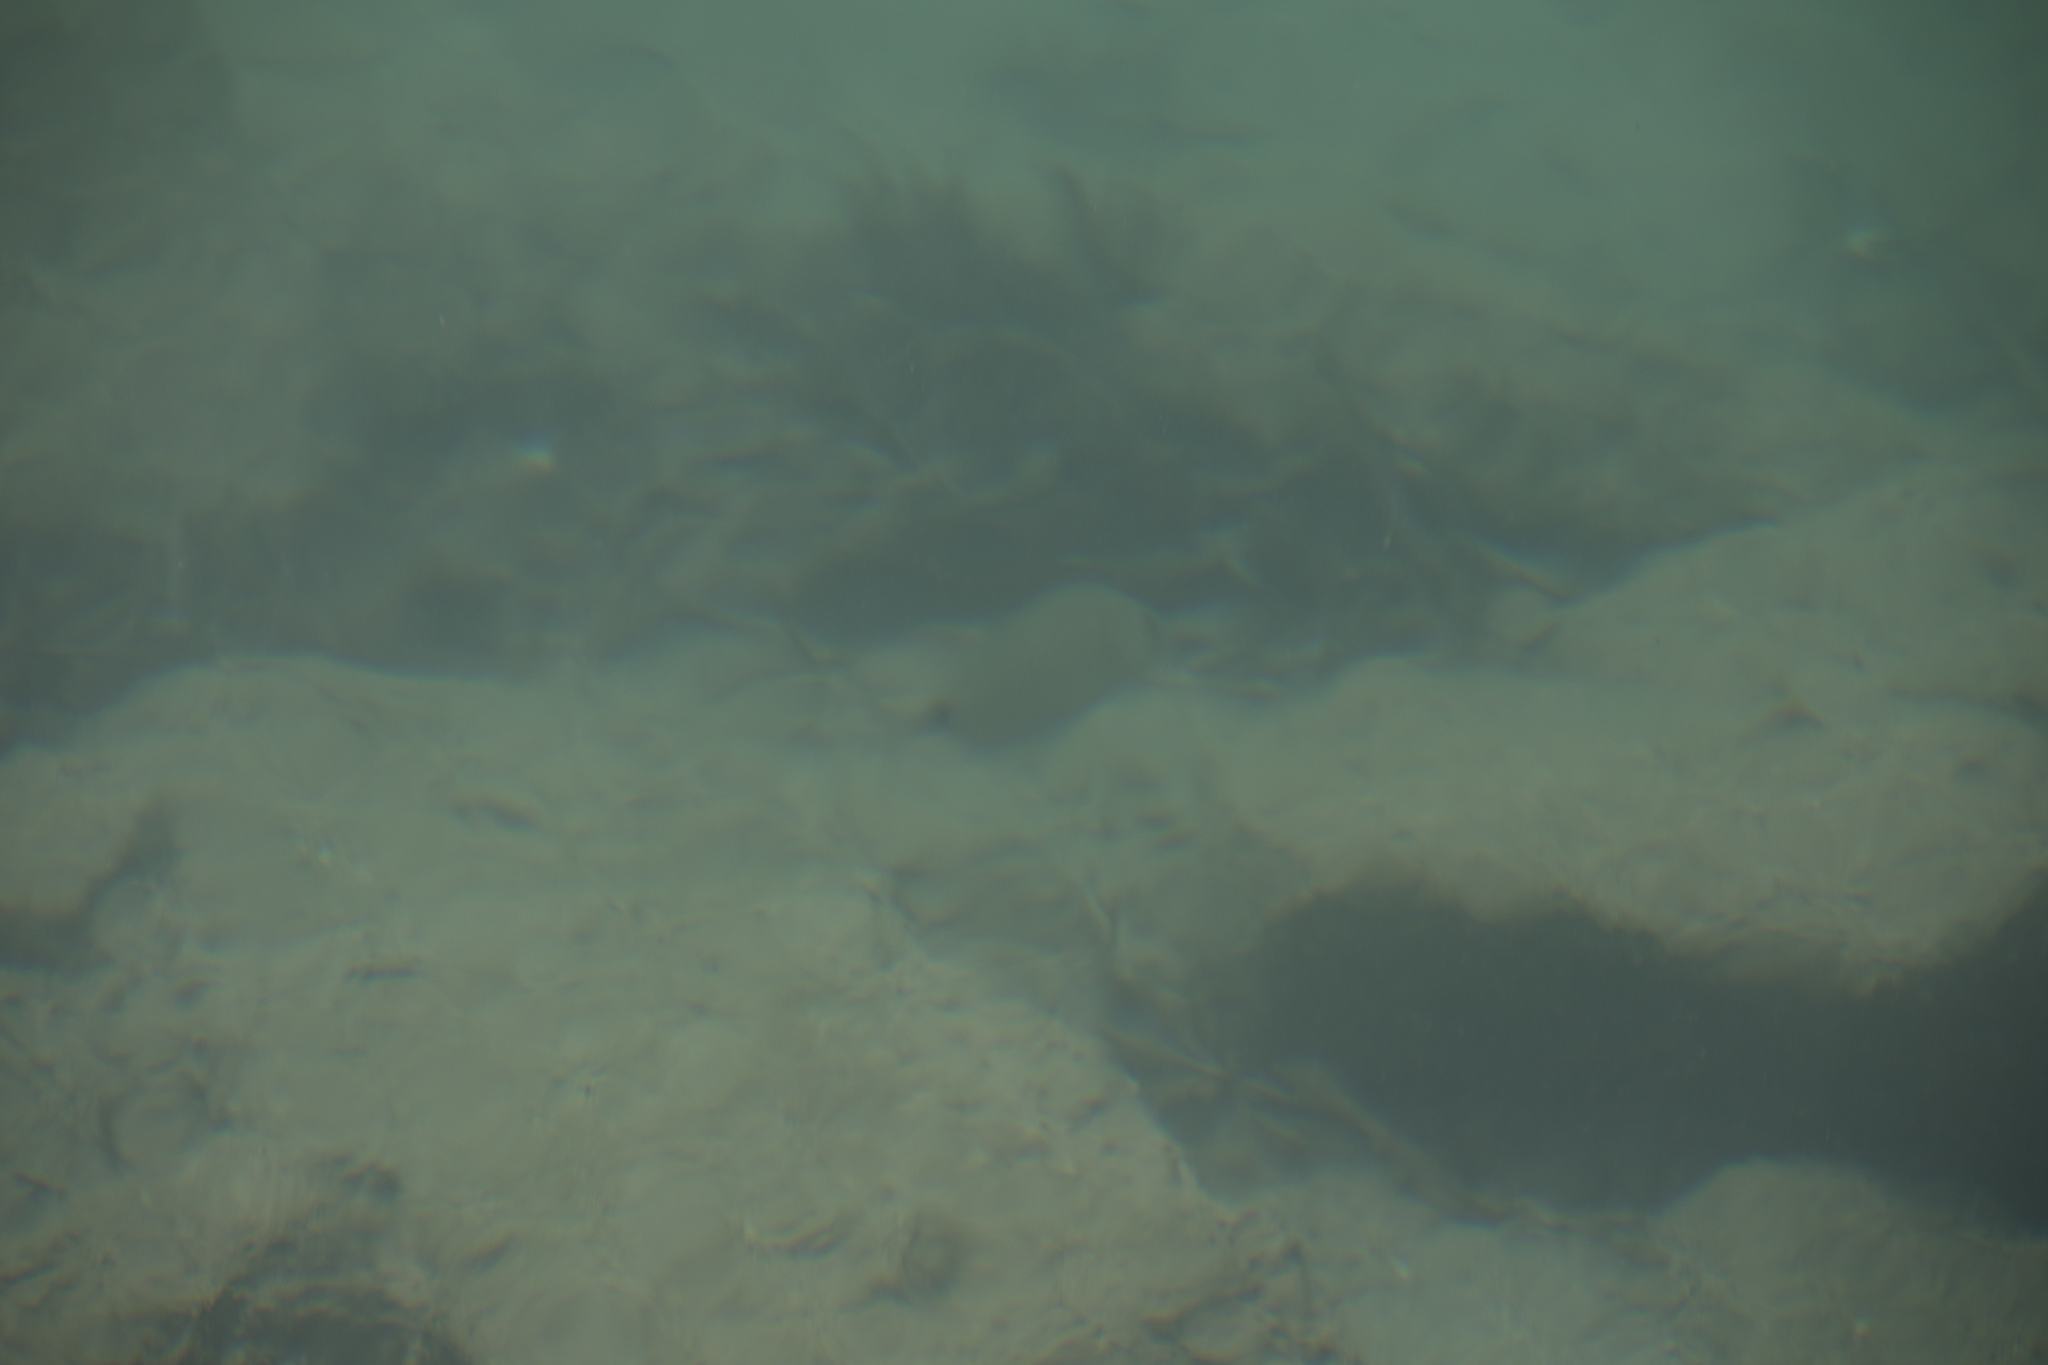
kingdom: Animalia
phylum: Chordata
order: Perciformes
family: Sparidae
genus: Diplodus
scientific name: Diplodus sargus
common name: White seabream
